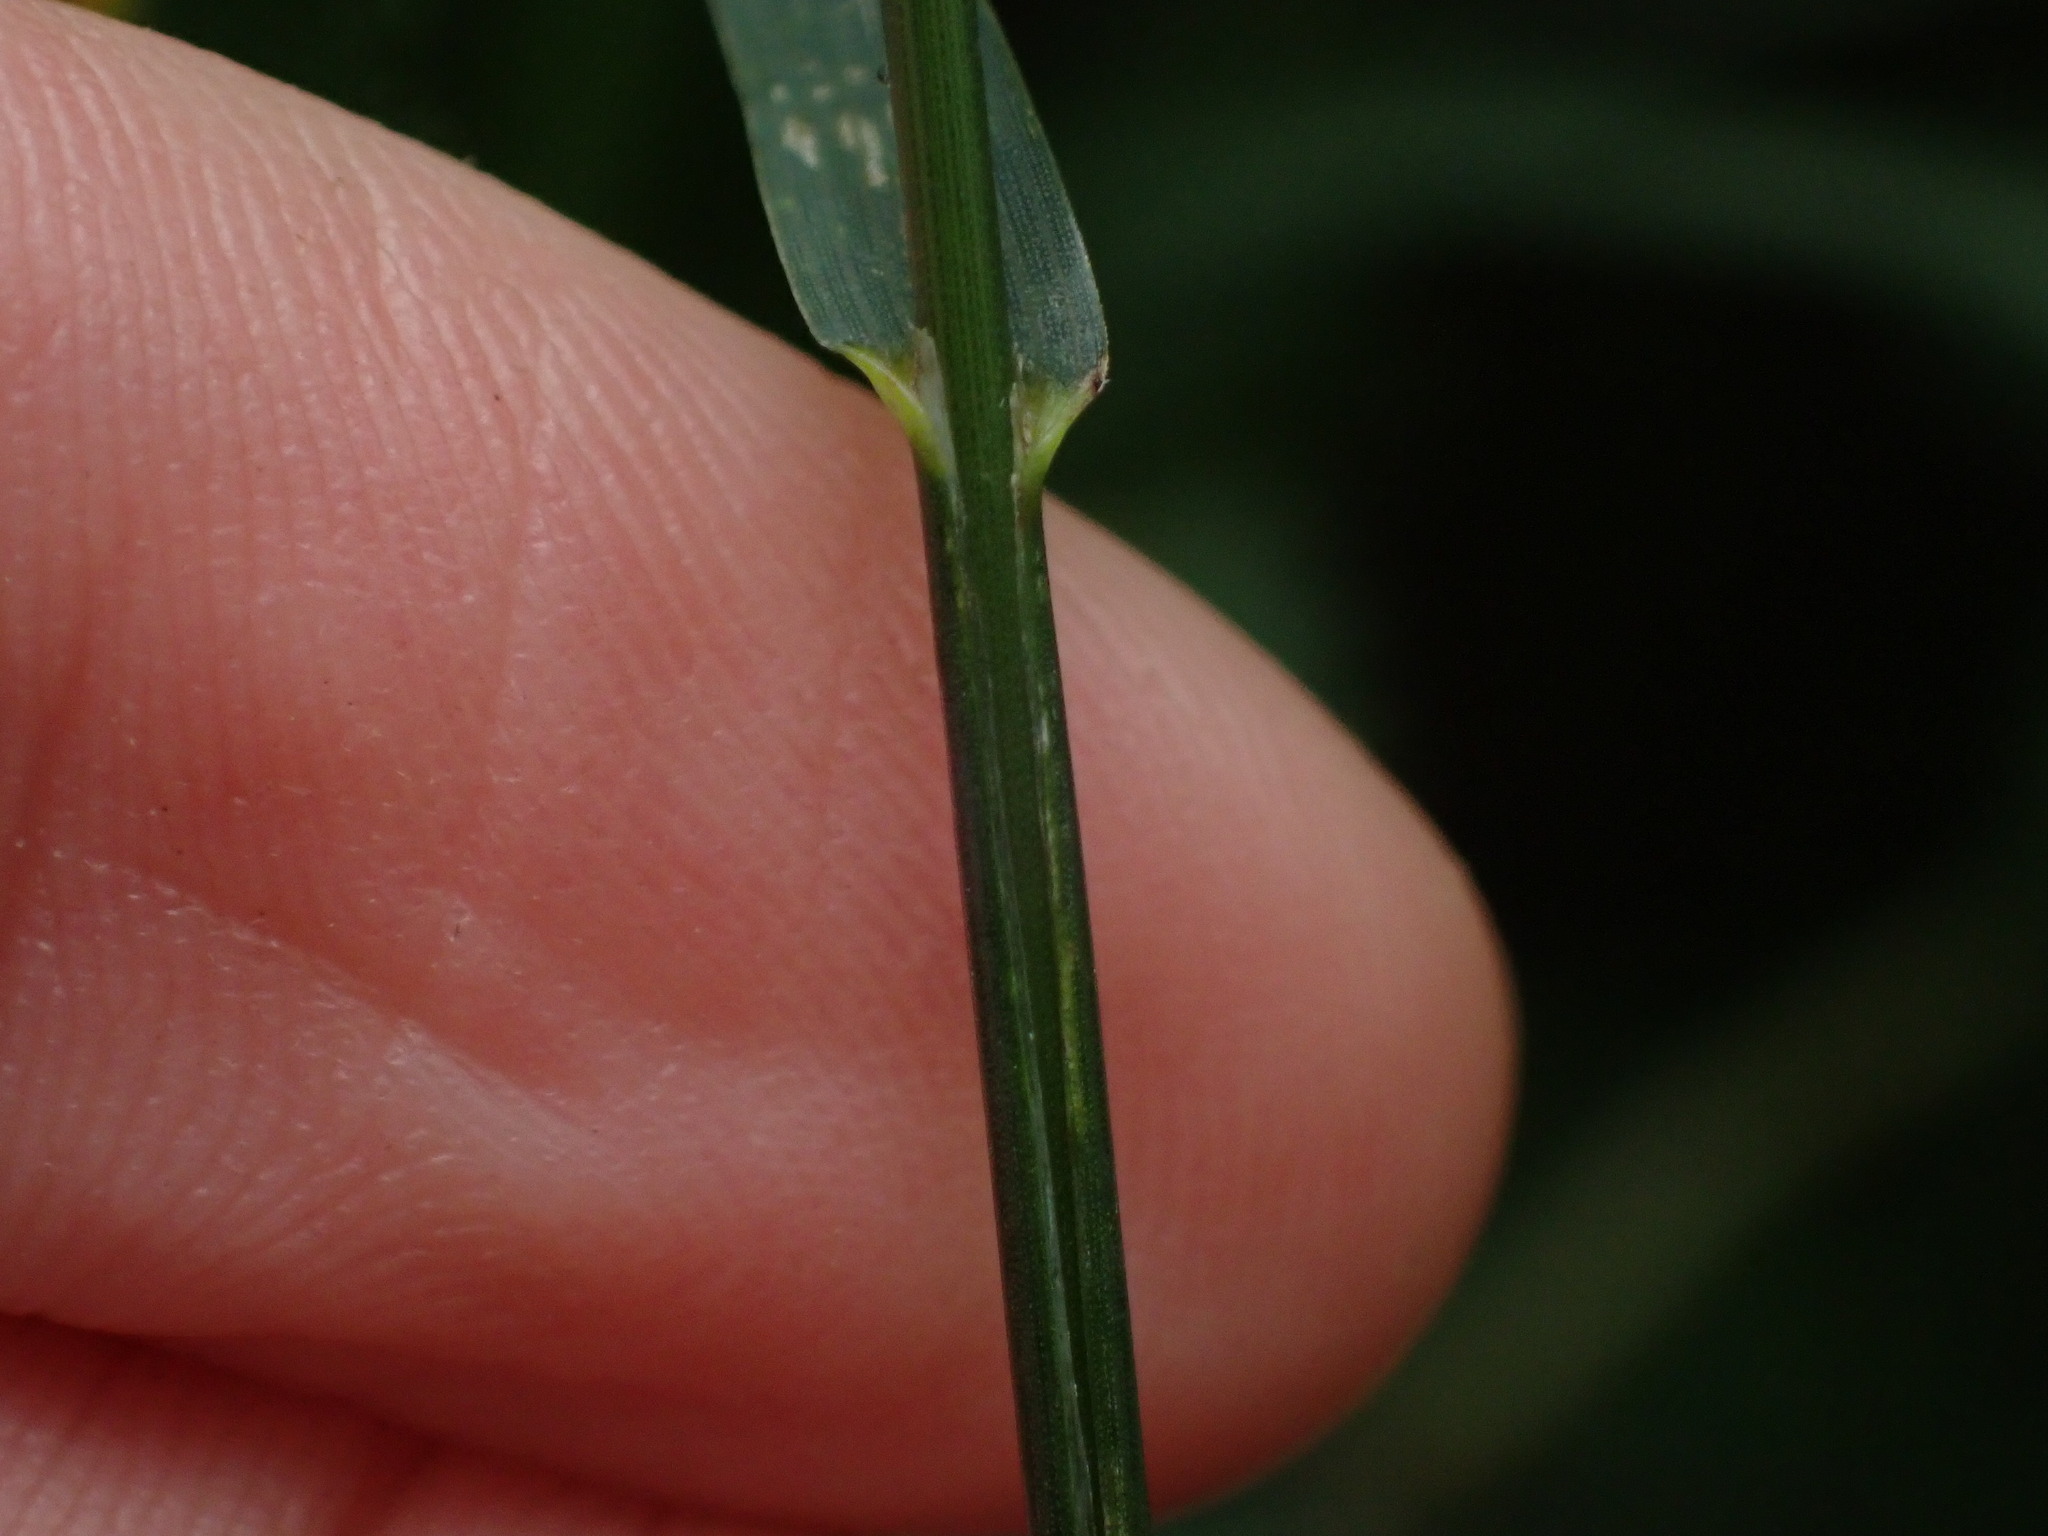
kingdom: Plantae
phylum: Tracheophyta
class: Liliopsida
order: Poales
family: Poaceae
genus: Bromus
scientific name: Bromus inermis
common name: Smooth brome
